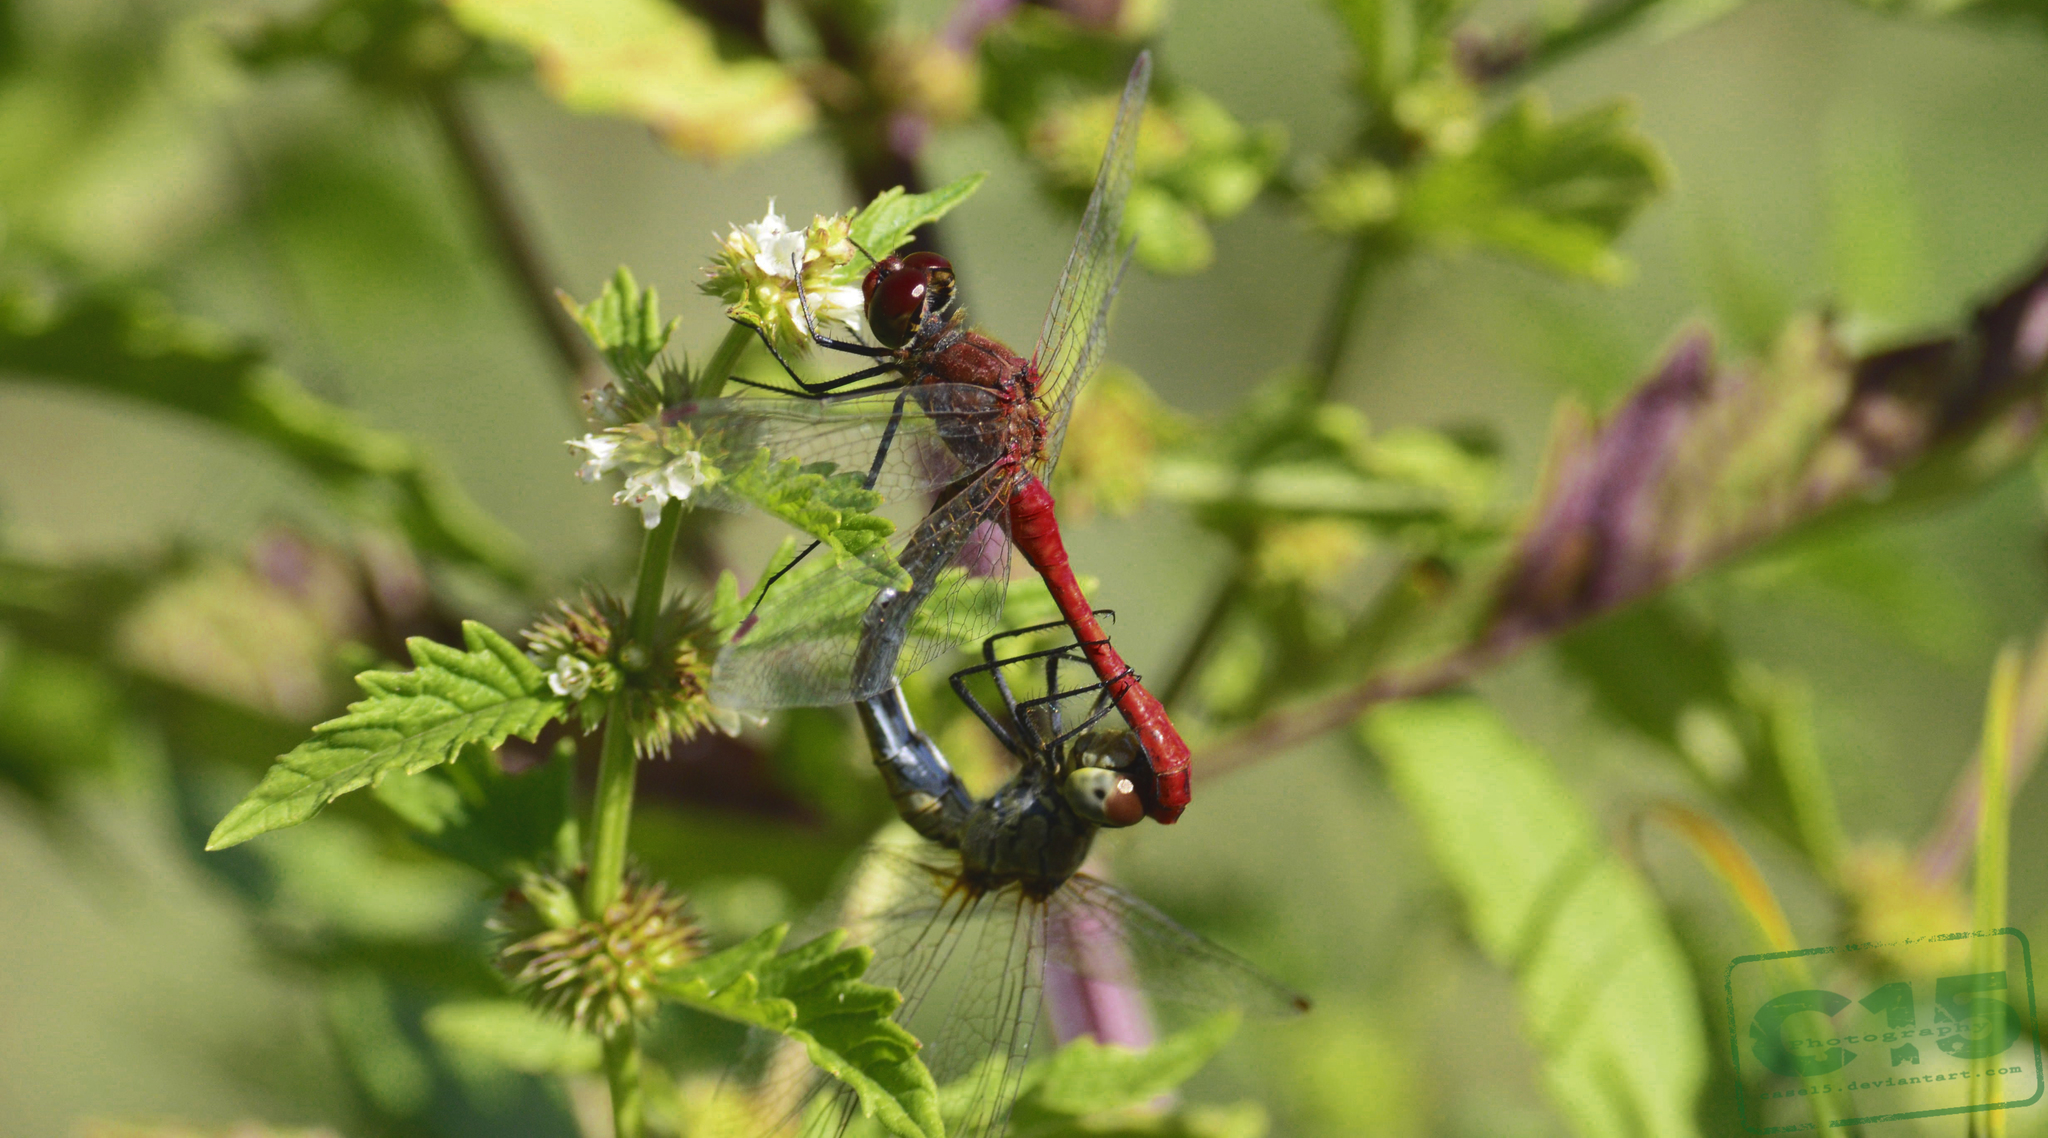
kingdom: Animalia
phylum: Arthropoda
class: Insecta
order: Odonata
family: Libellulidae
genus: Sympetrum
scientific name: Sympetrum sanguineum
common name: Ruddy darter
